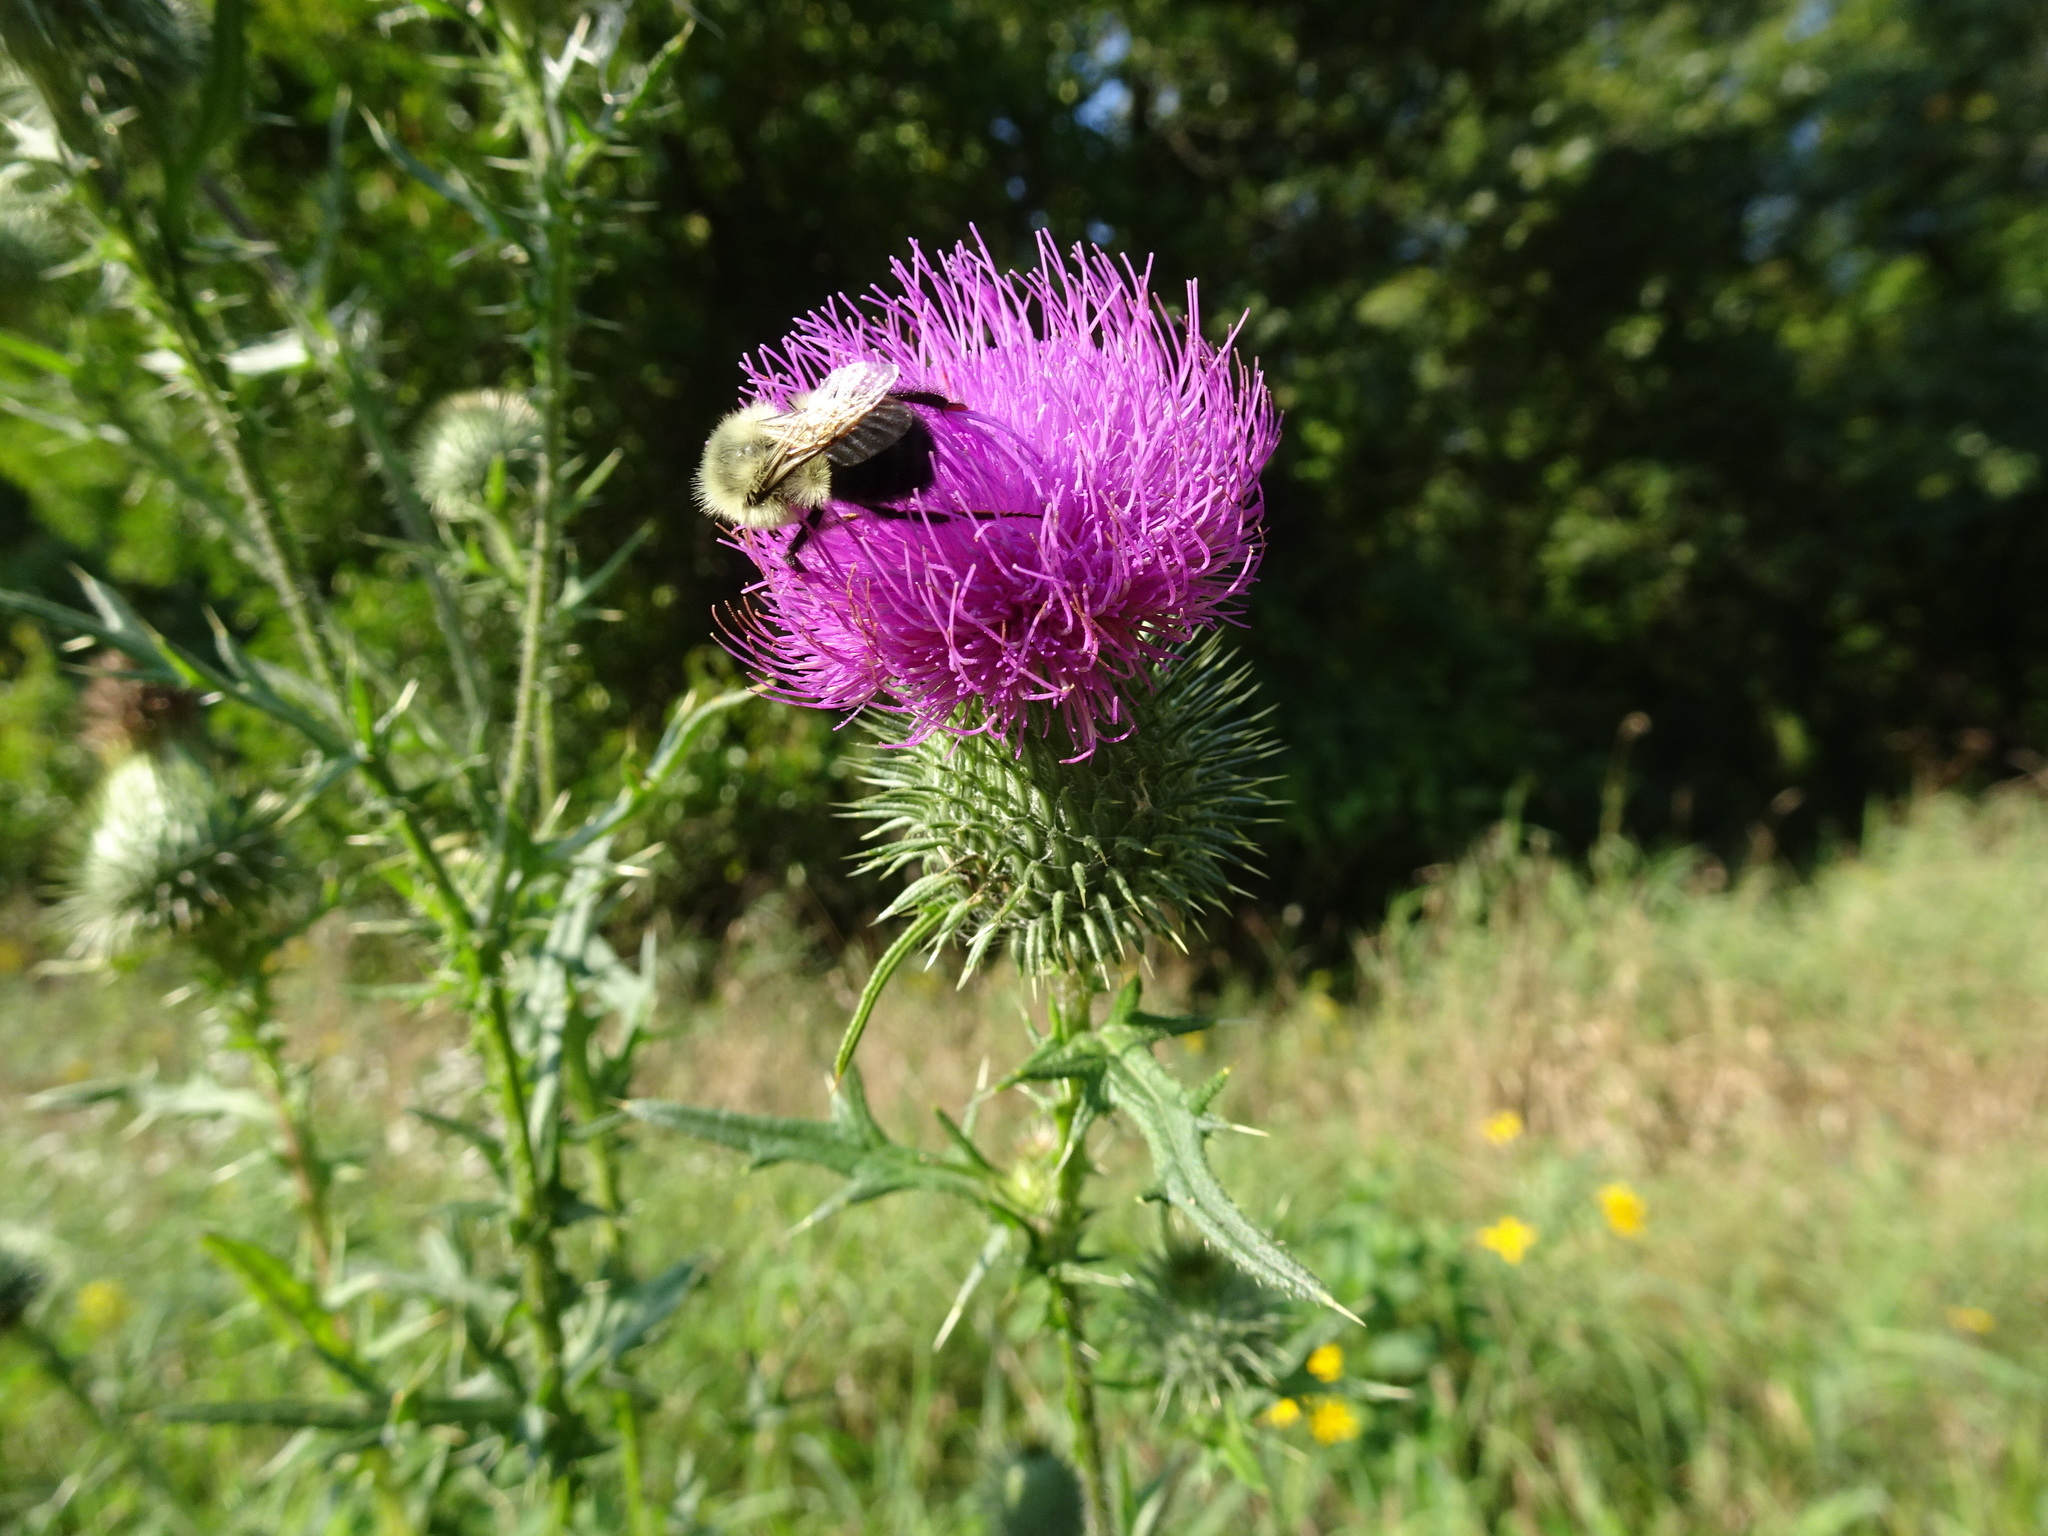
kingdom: Plantae
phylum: Tracheophyta
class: Magnoliopsida
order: Asterales
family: Asteraceae
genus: Cirsium
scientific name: Cirsium vulgare
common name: Bull thistle
